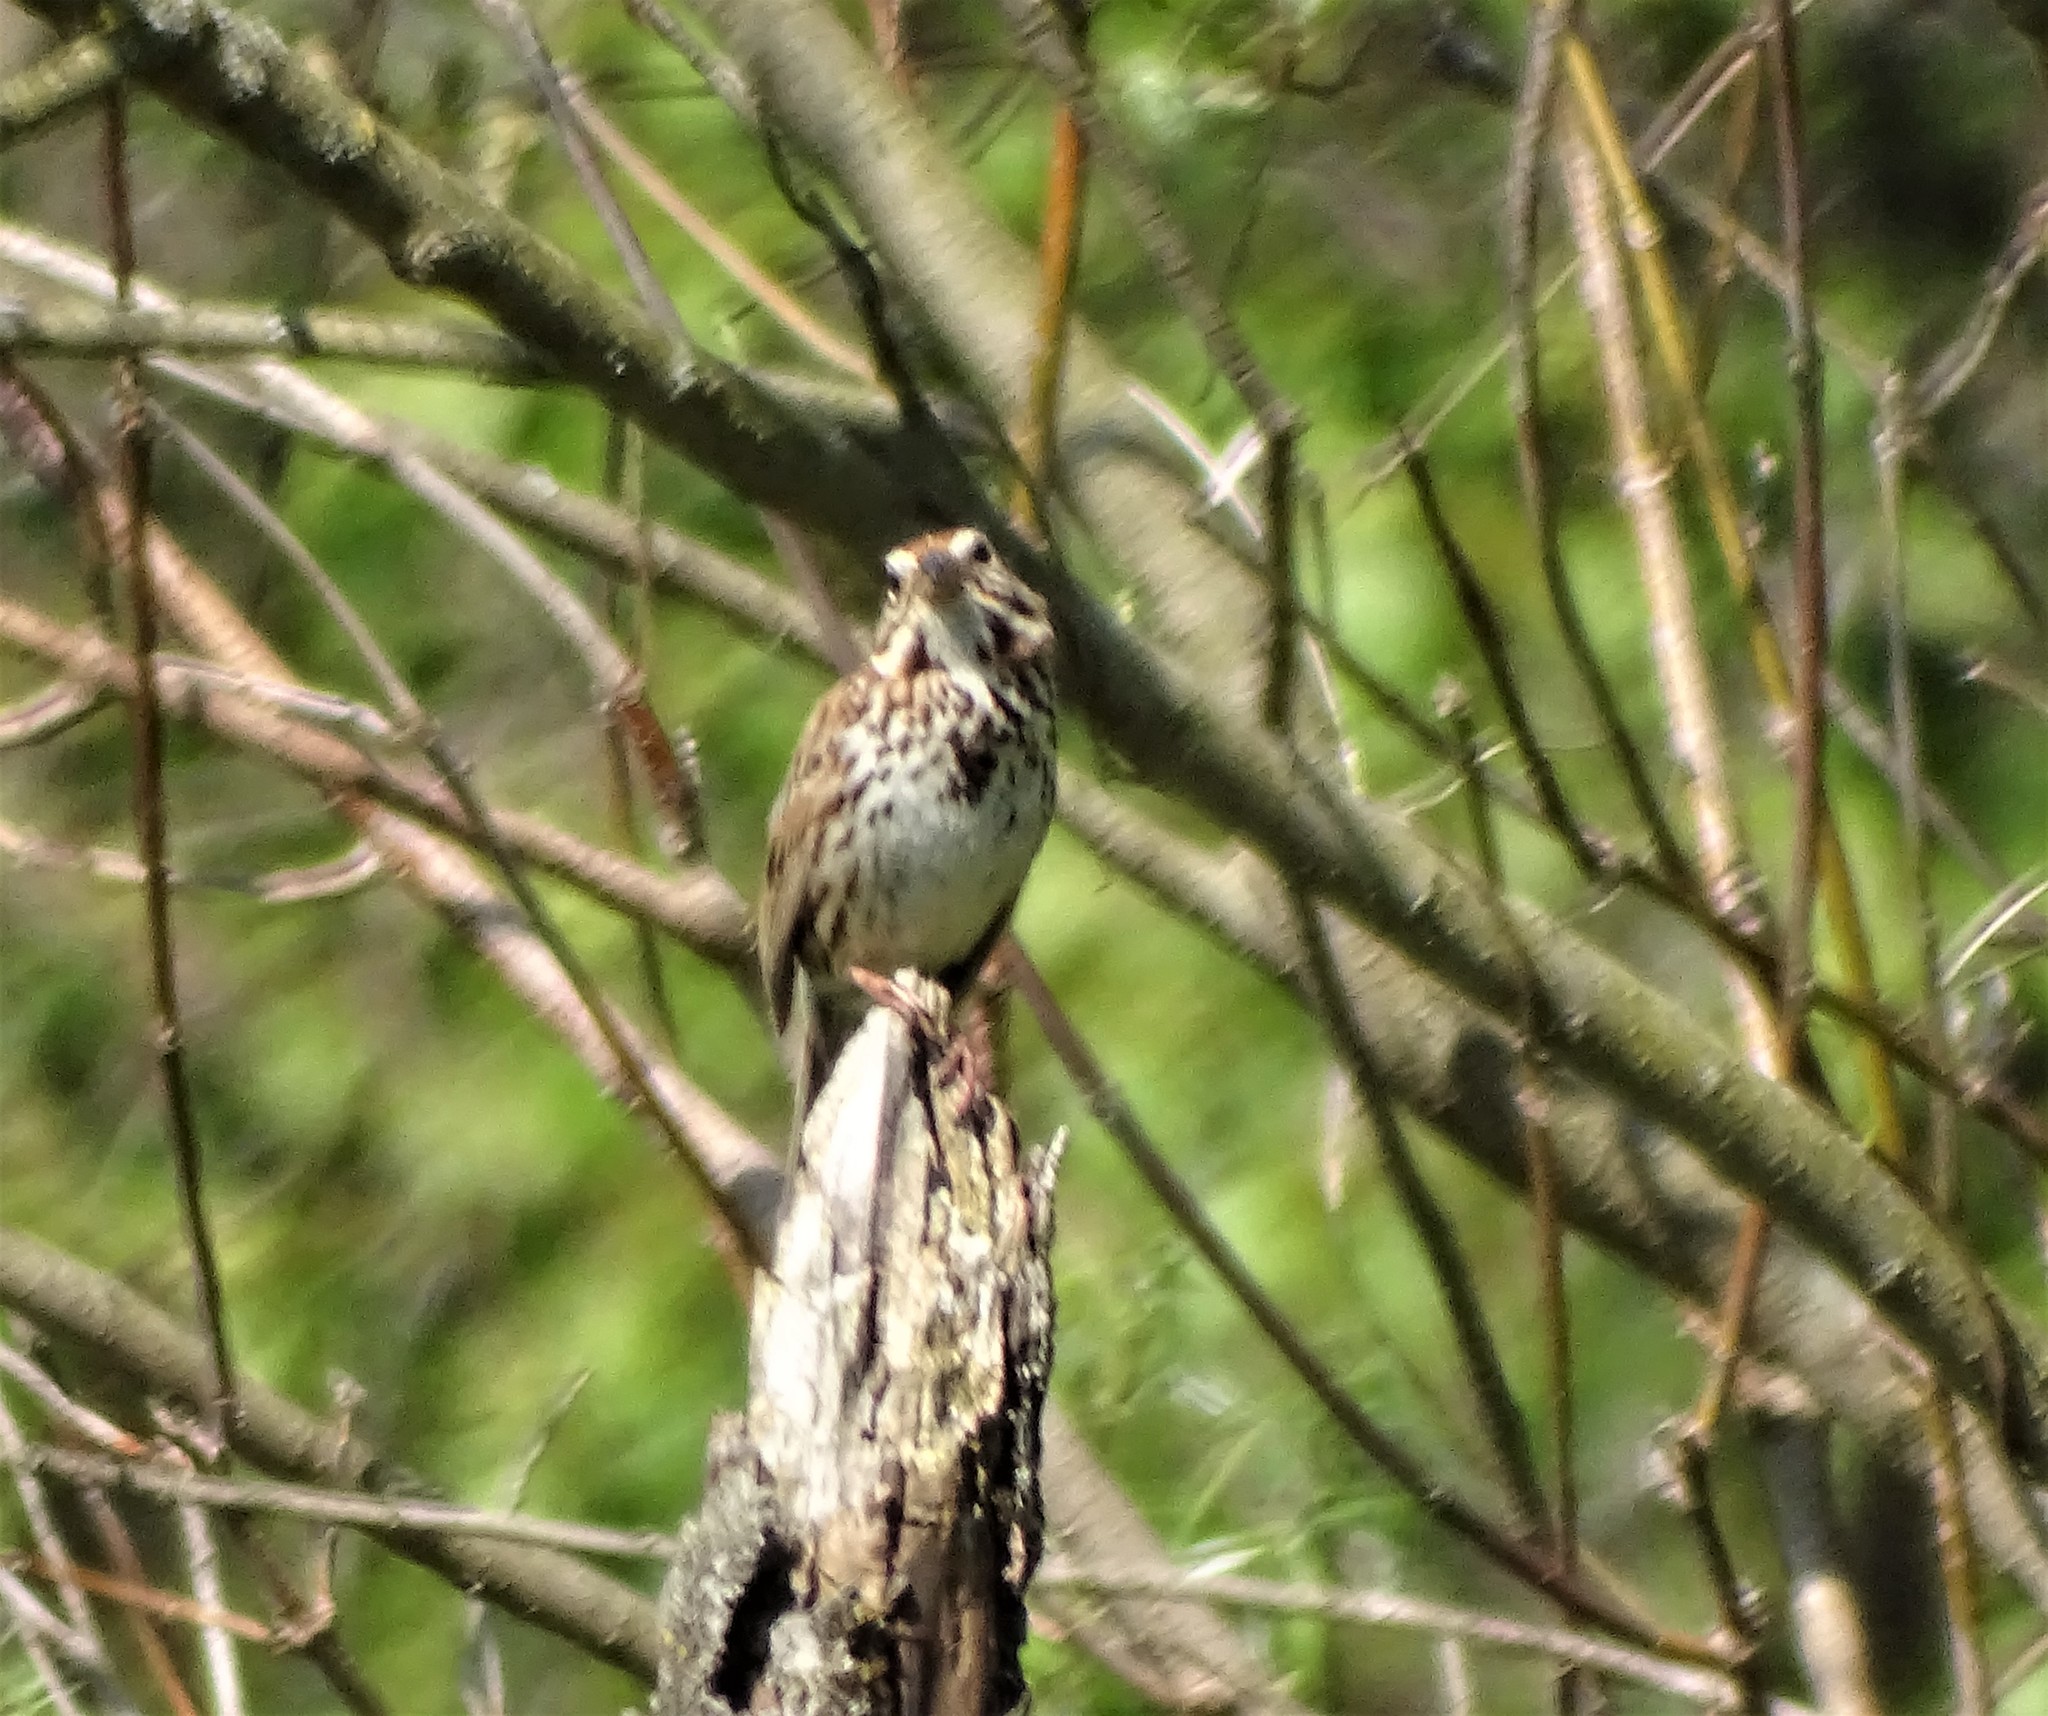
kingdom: Animalia
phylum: Chordata
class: Aves
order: Passeriformes
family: Passerellidae
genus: Melospiza
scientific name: Melospiza melodia
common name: Song sparrow
